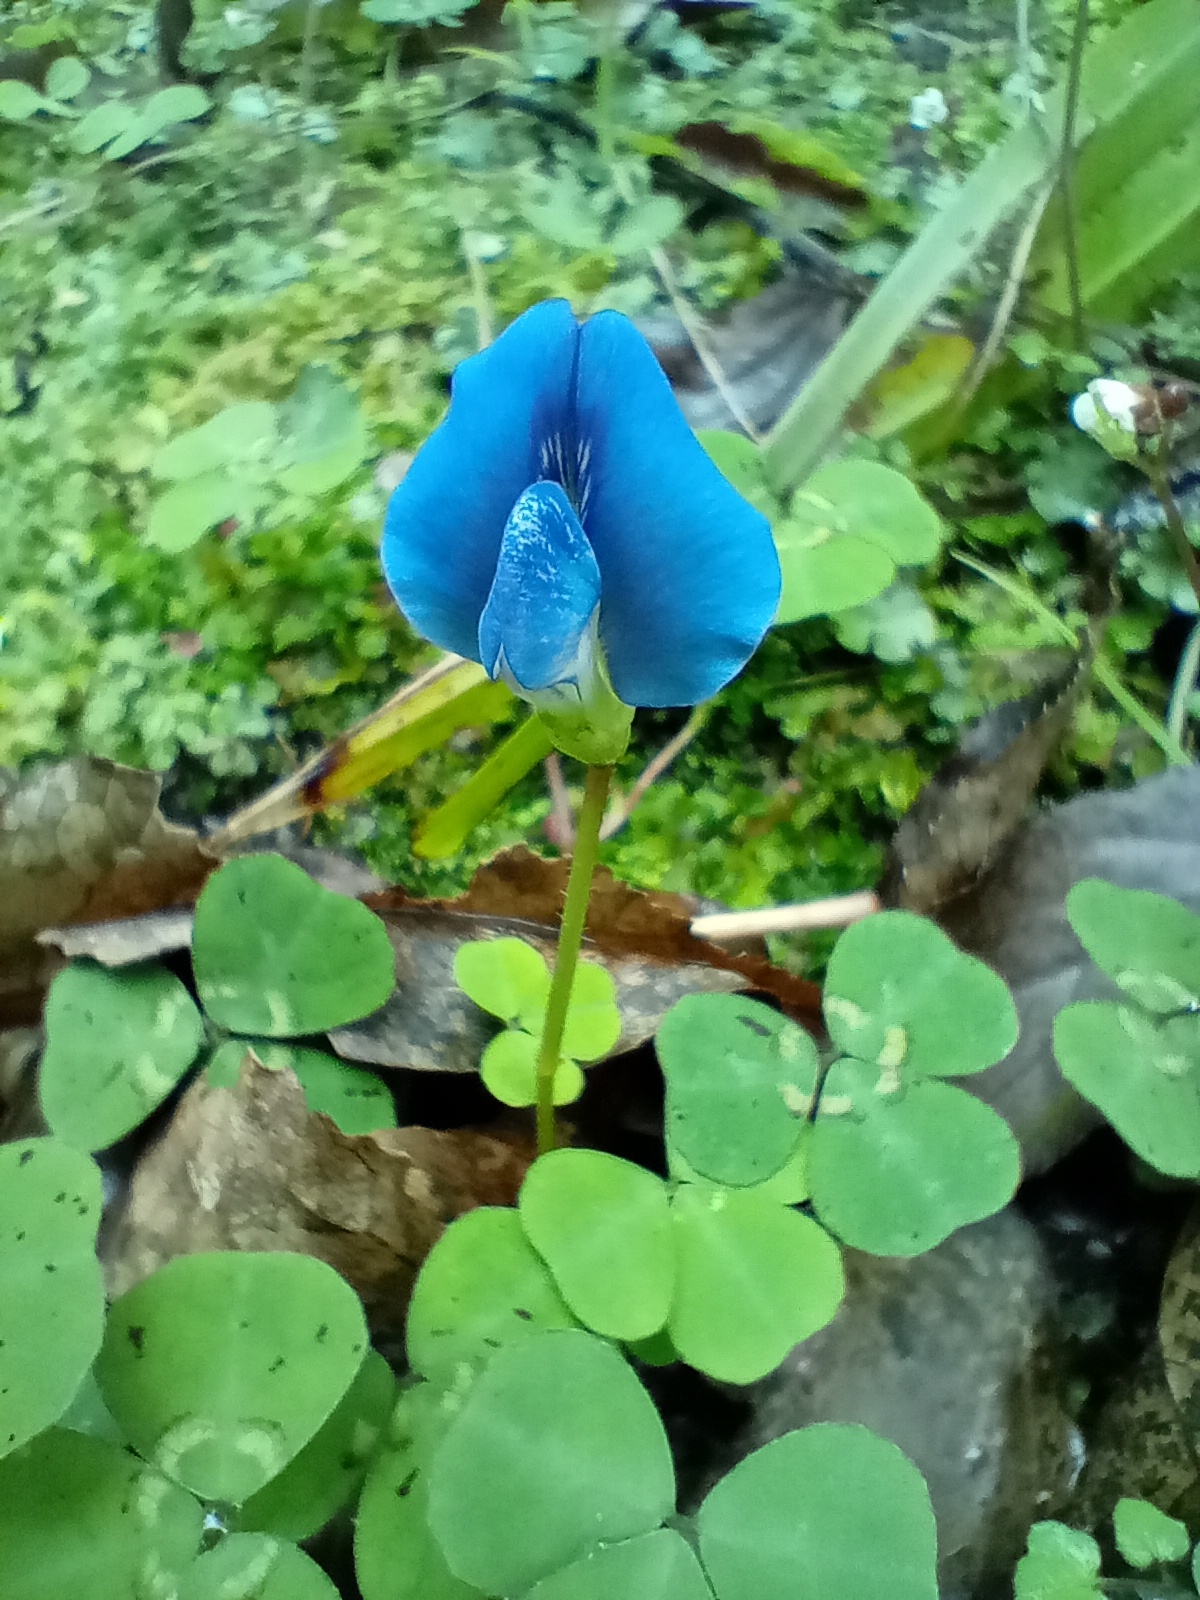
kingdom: Plantae
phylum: Tracheophyta
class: Magnoliopsida
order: Fabales
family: Fabaceae
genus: Parochetus
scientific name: Parochetus communis
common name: Blue oxalis
